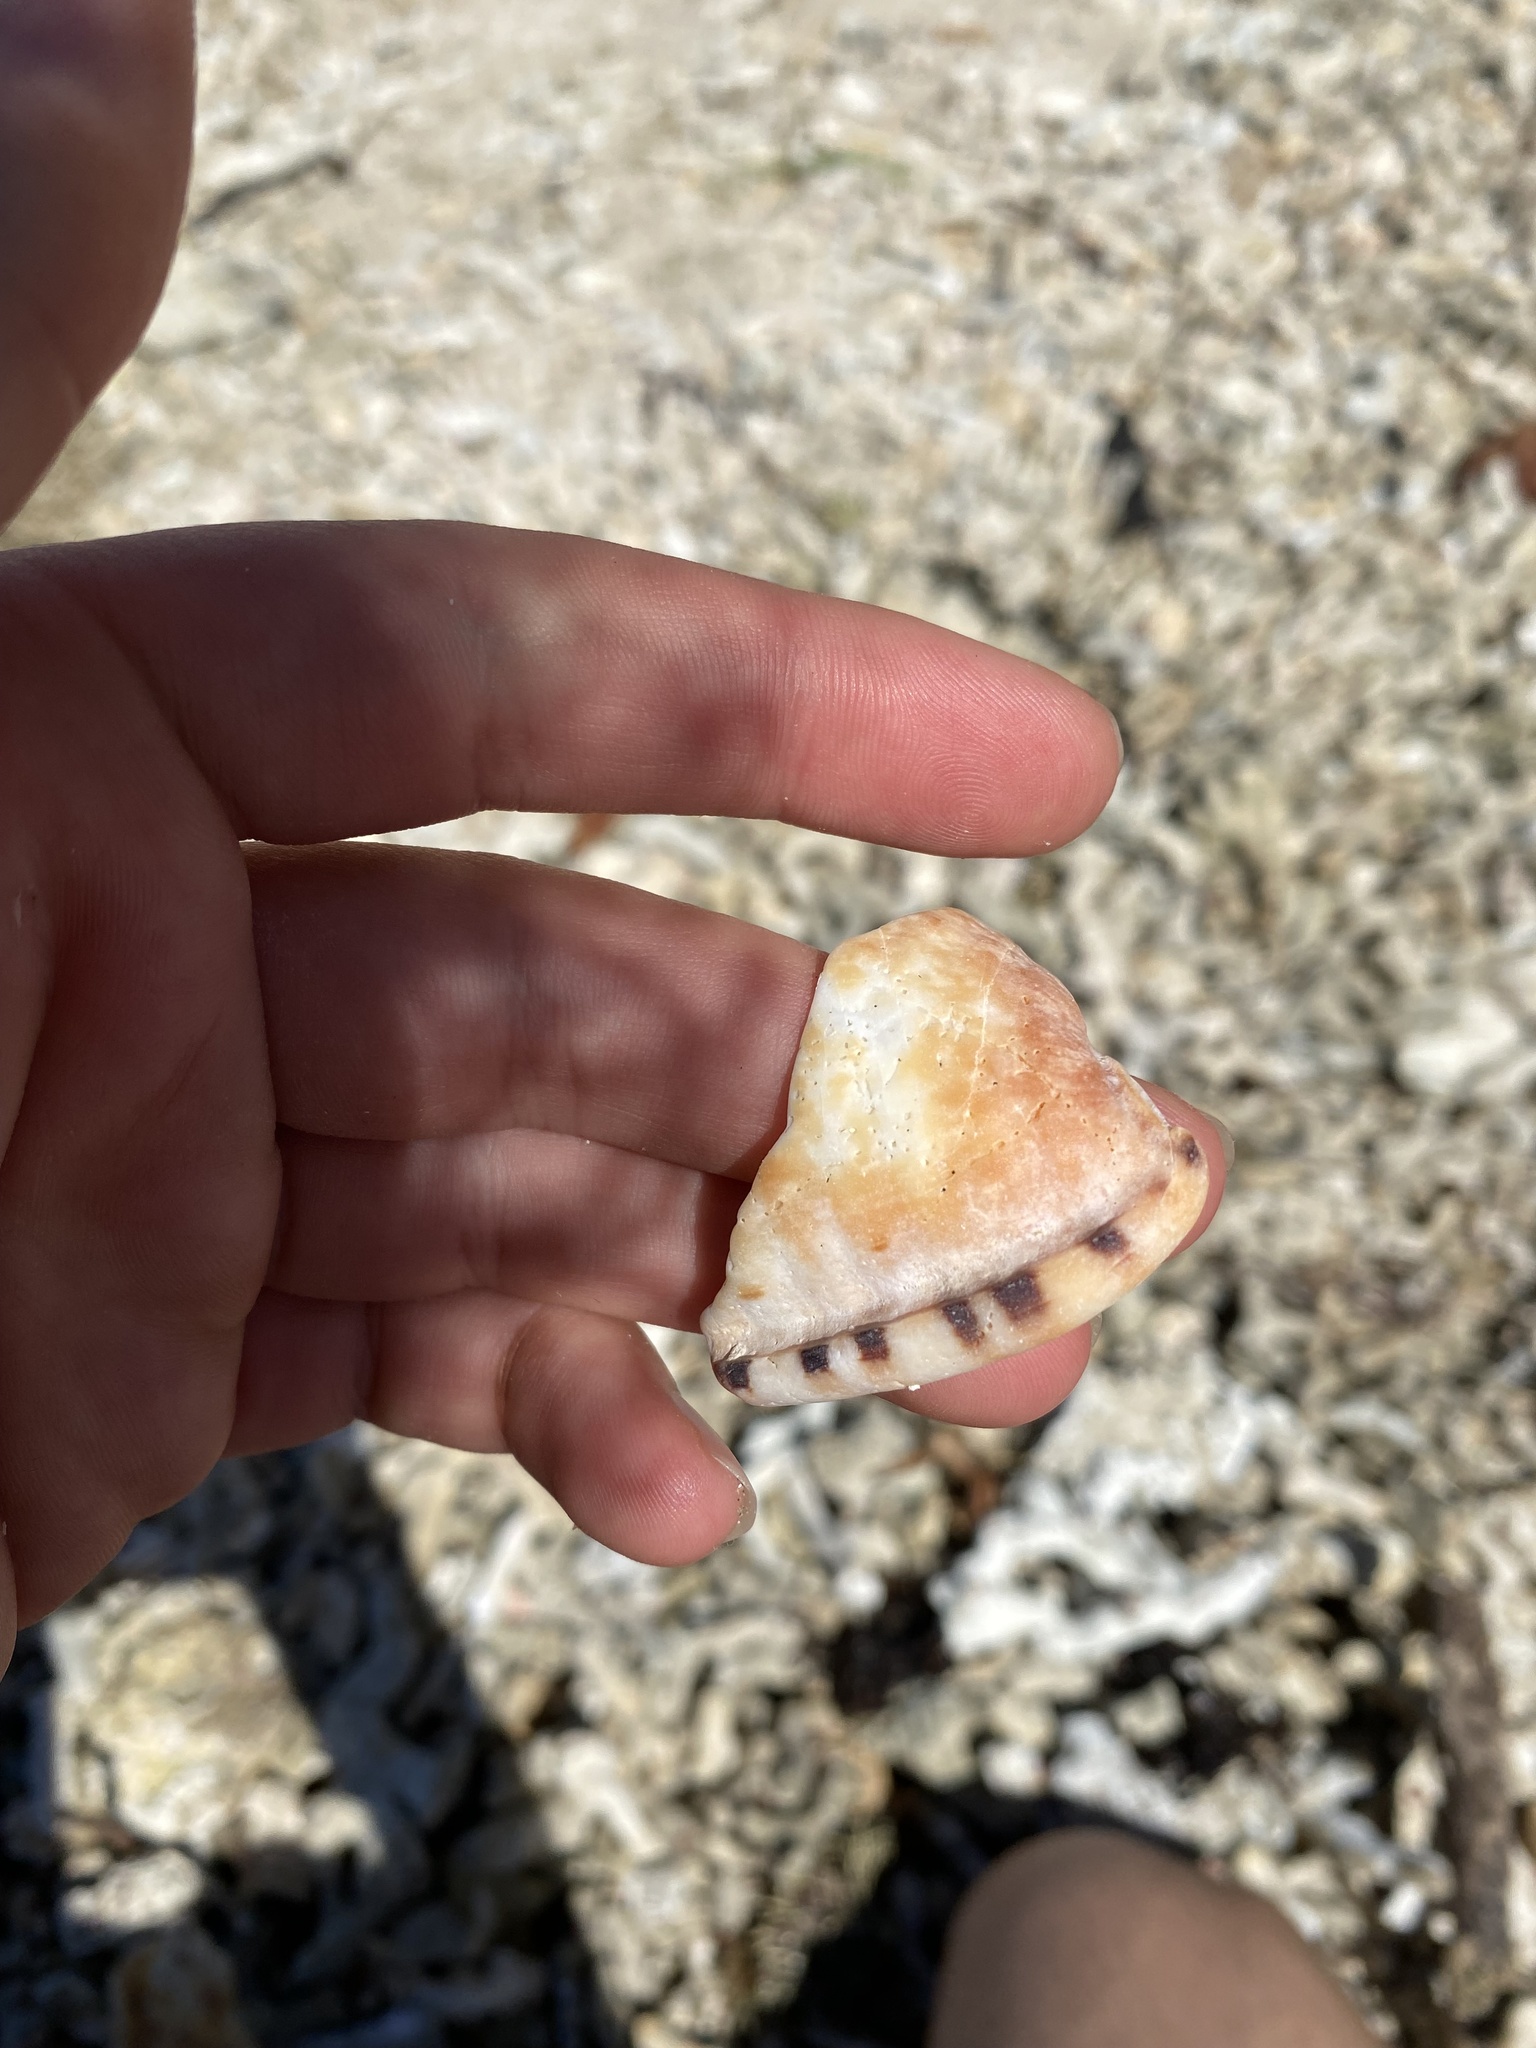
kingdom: Animalia
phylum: Mollusca
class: Gastropoda
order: Littorinimorpha
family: Cassidae
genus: Cypraecassis
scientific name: Cypraecassis testiculus
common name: Reticulate cowrie-helmet
